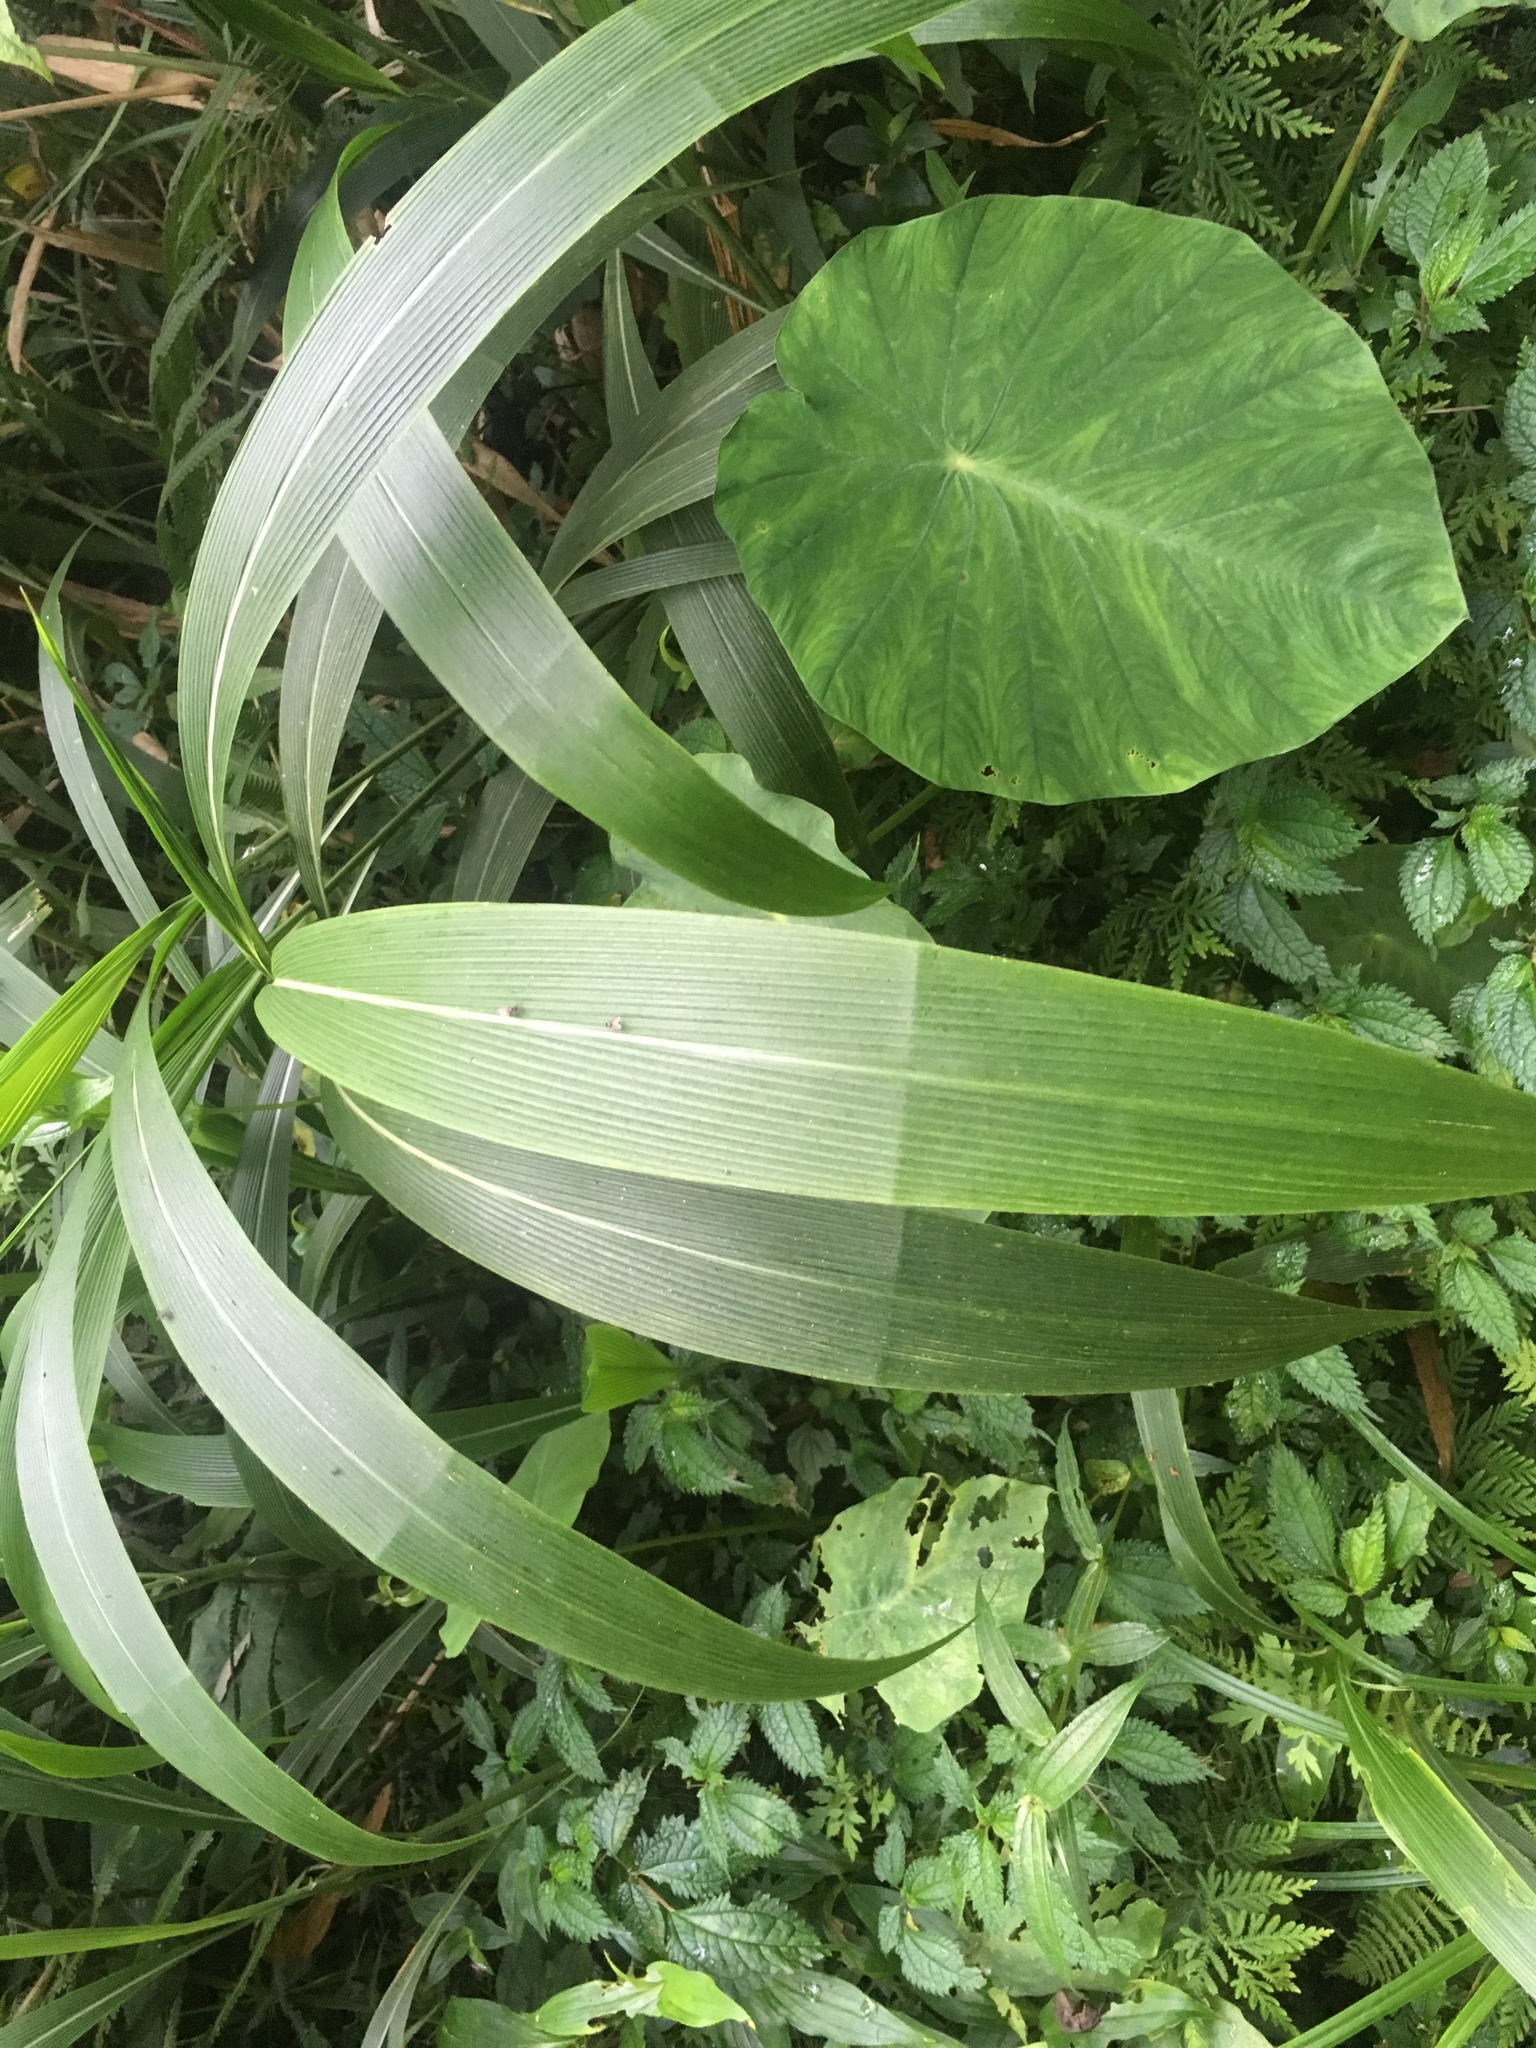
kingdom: Plantae
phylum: Tracheophyta
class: Liliopsida
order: Poales
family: Poaceae
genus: Setaria
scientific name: Setaria palmifolia
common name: Broadleaved bristlegrass
